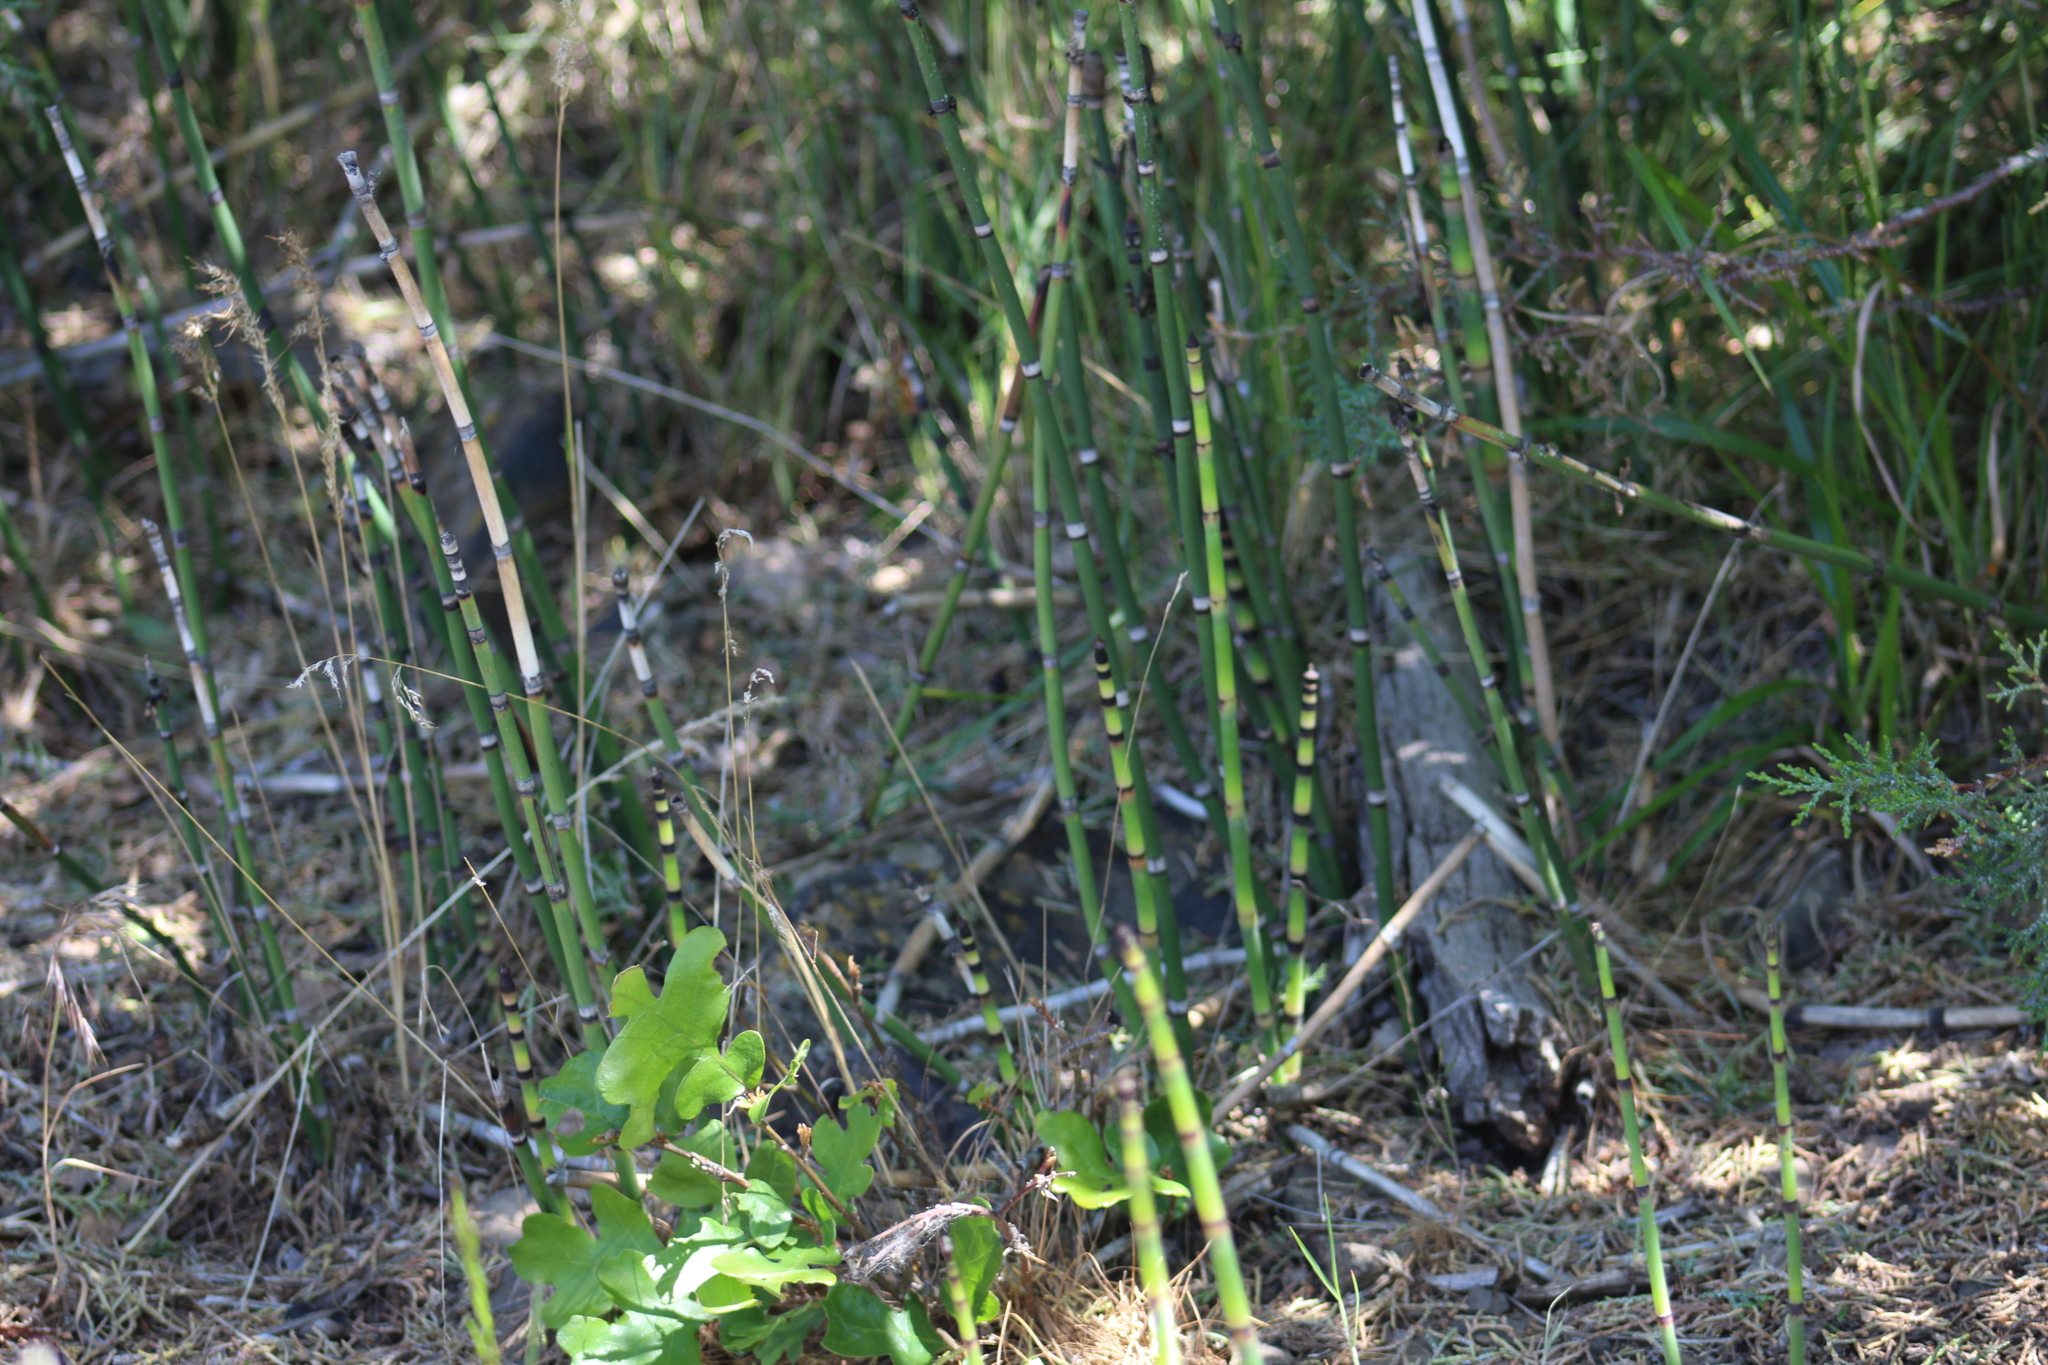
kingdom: Plantae
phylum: Tracheophyta
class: Polypodiopsida
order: Equisetales
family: Equisetaceae
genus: Equisetum
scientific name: Equisetum hyemale
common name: Rough horsetail
